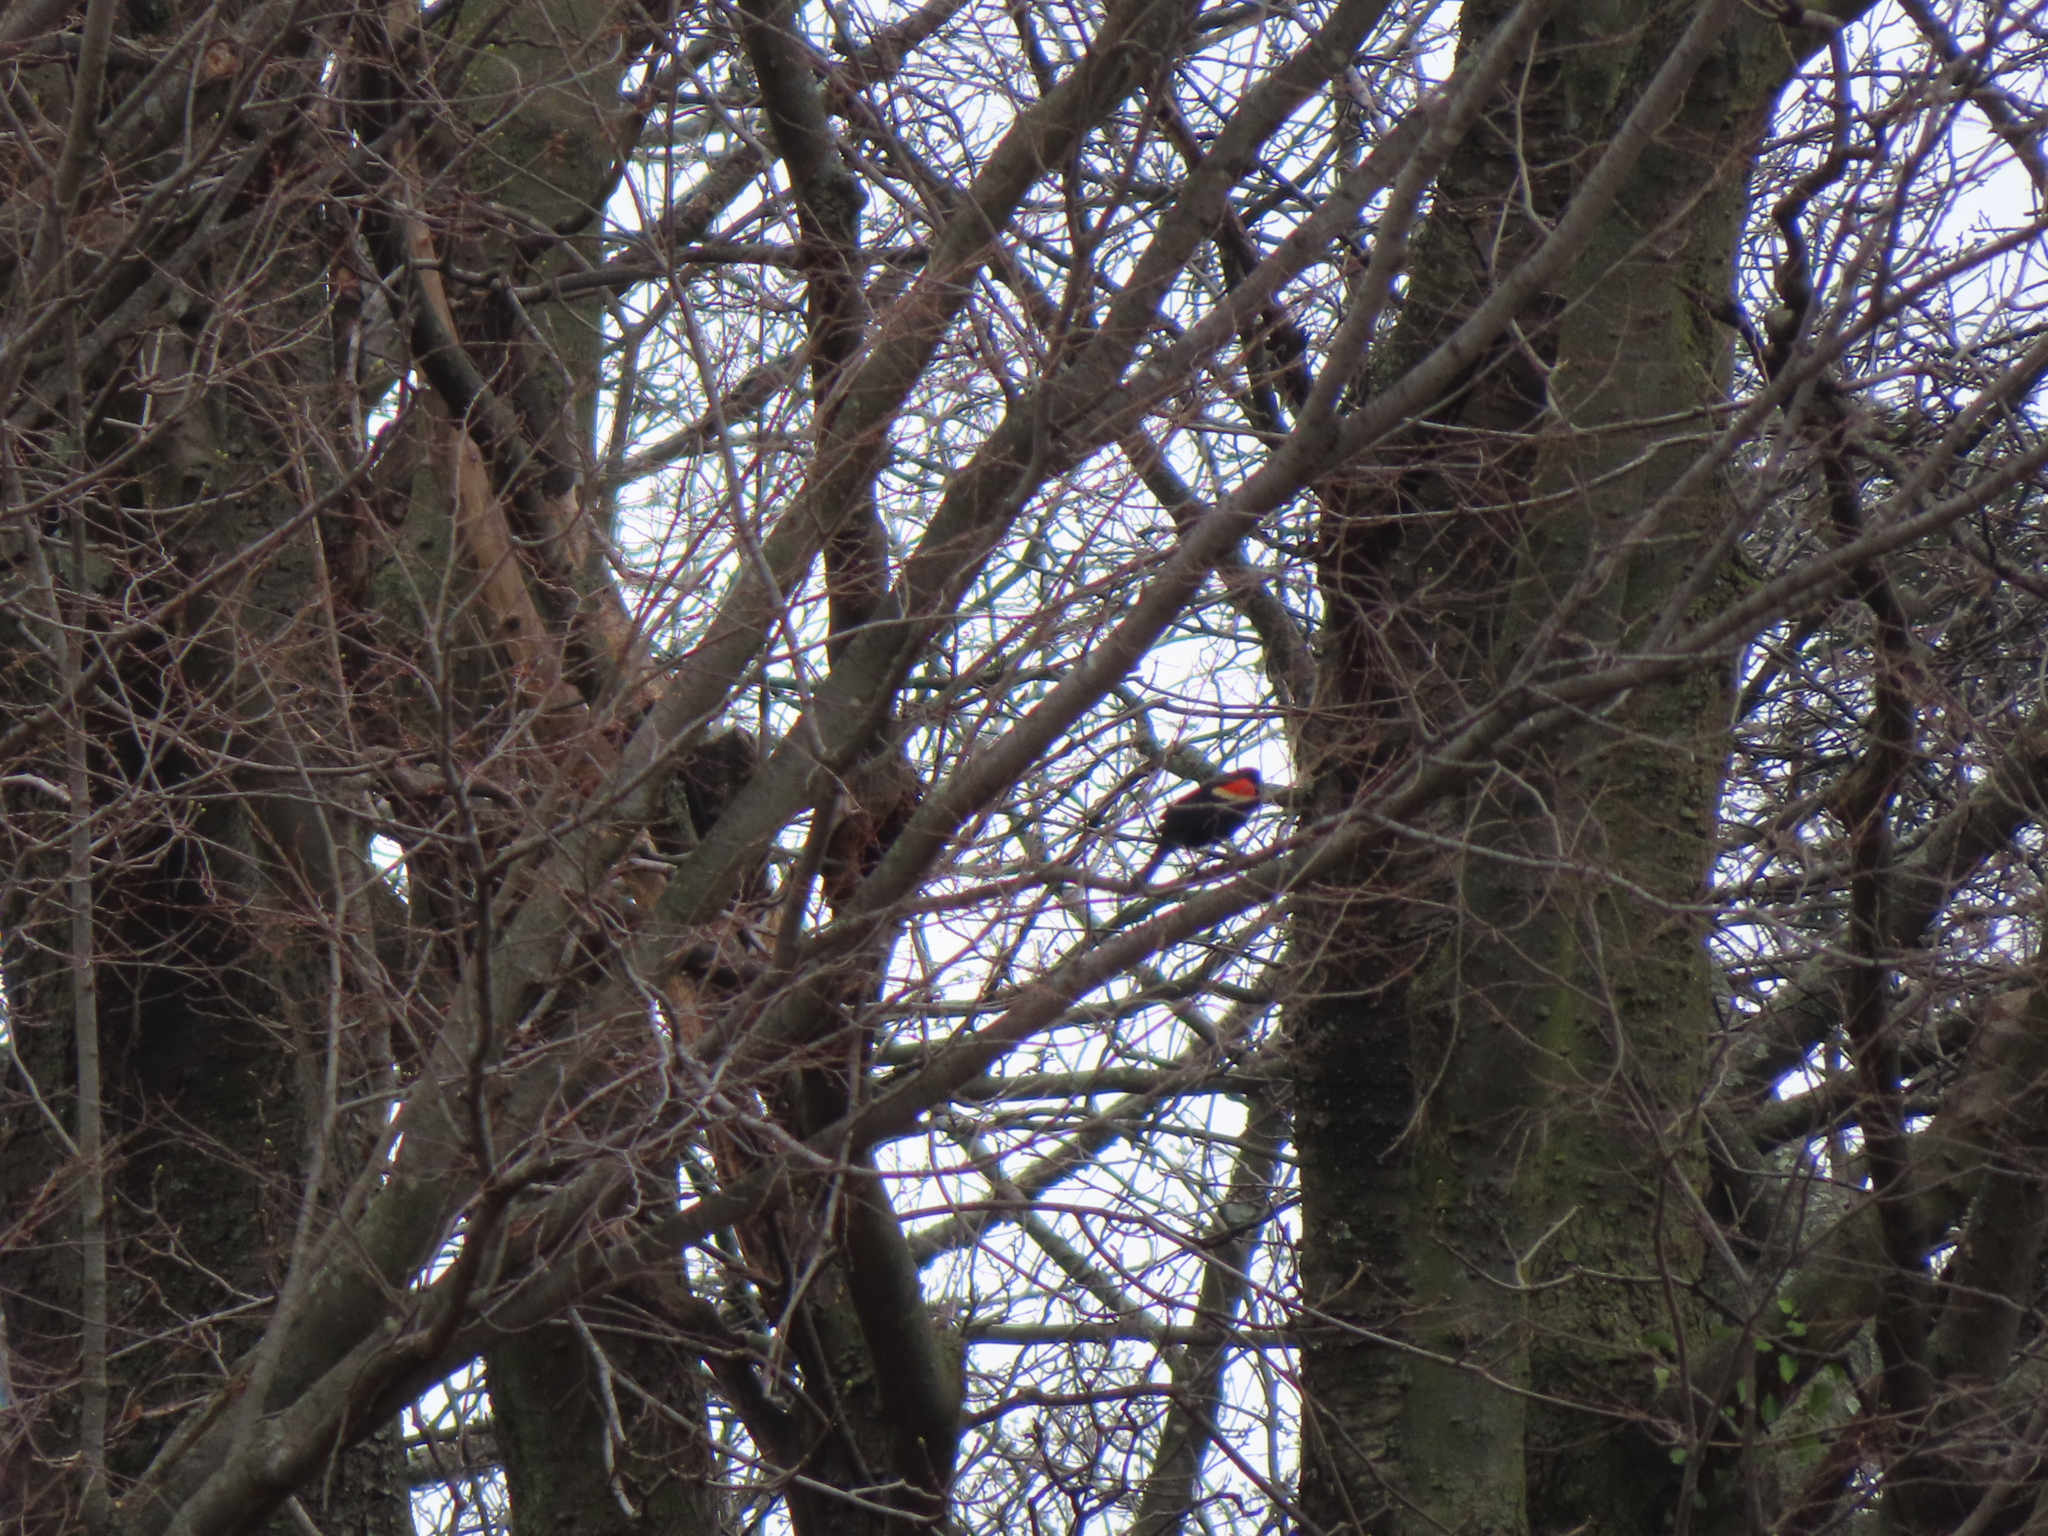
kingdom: Animalia
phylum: Chordata
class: Aves
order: Passeriformes
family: Icteridae
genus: Agelaius
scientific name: Agelaius phoeniceus
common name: Red-winged blackbird
